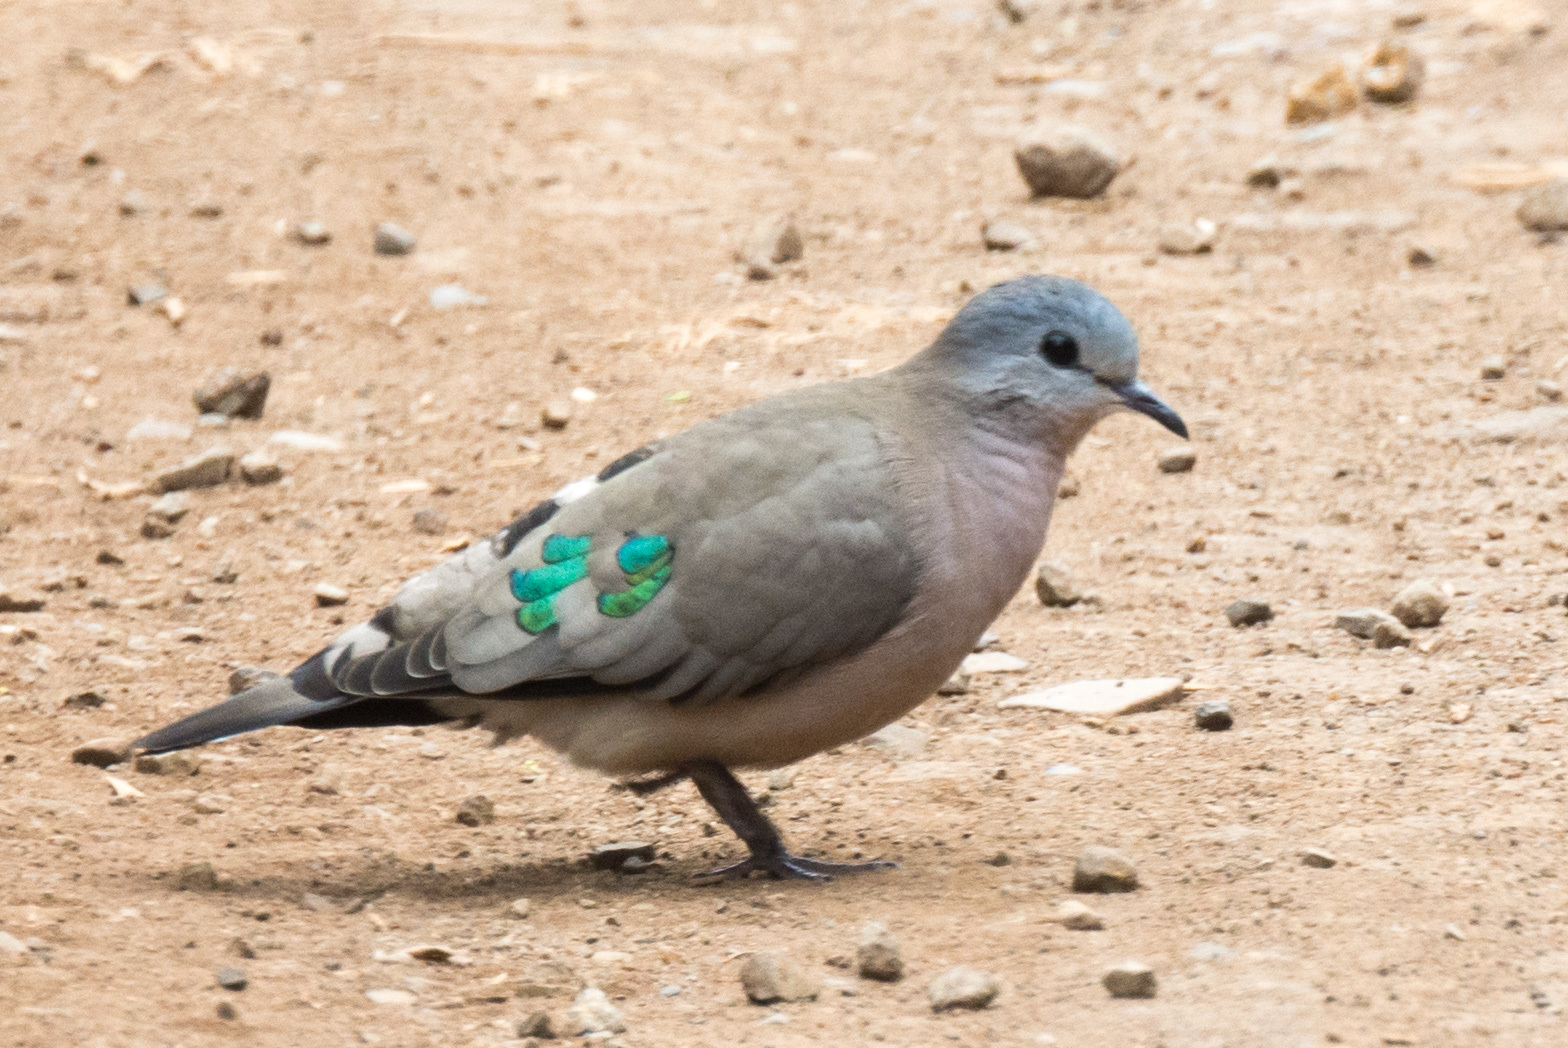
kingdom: Animalia
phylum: Chordata
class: Aves
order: Columbiformes
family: Columbidae
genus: Turtur
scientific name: Turtur chalcospilos
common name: Emerald-spotted wood dove
